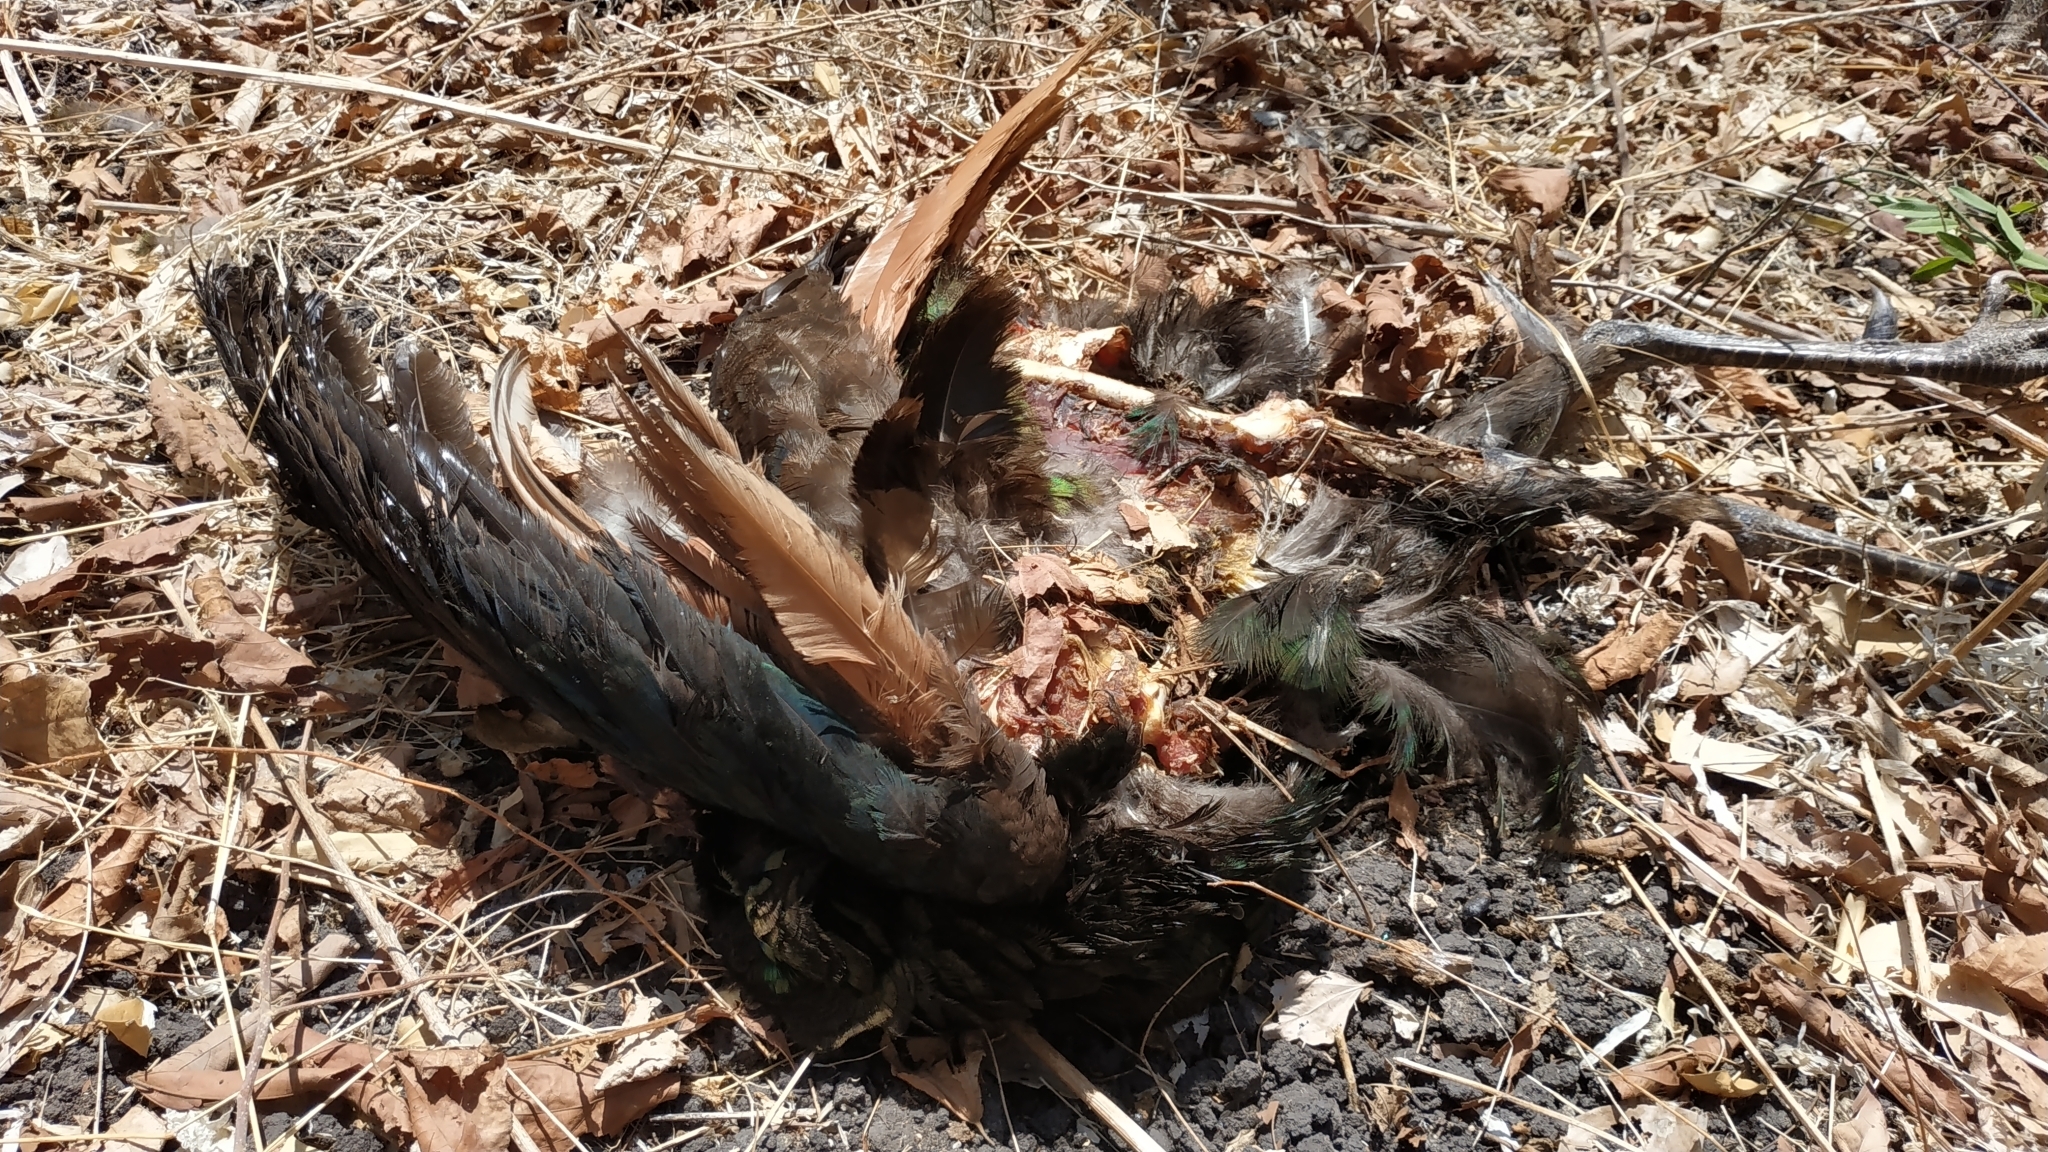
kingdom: Animalia
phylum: Chordata
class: Aves
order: Galliformes
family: Phasianidae
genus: Pavo
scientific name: Pavo muticus
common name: Green peafowl
